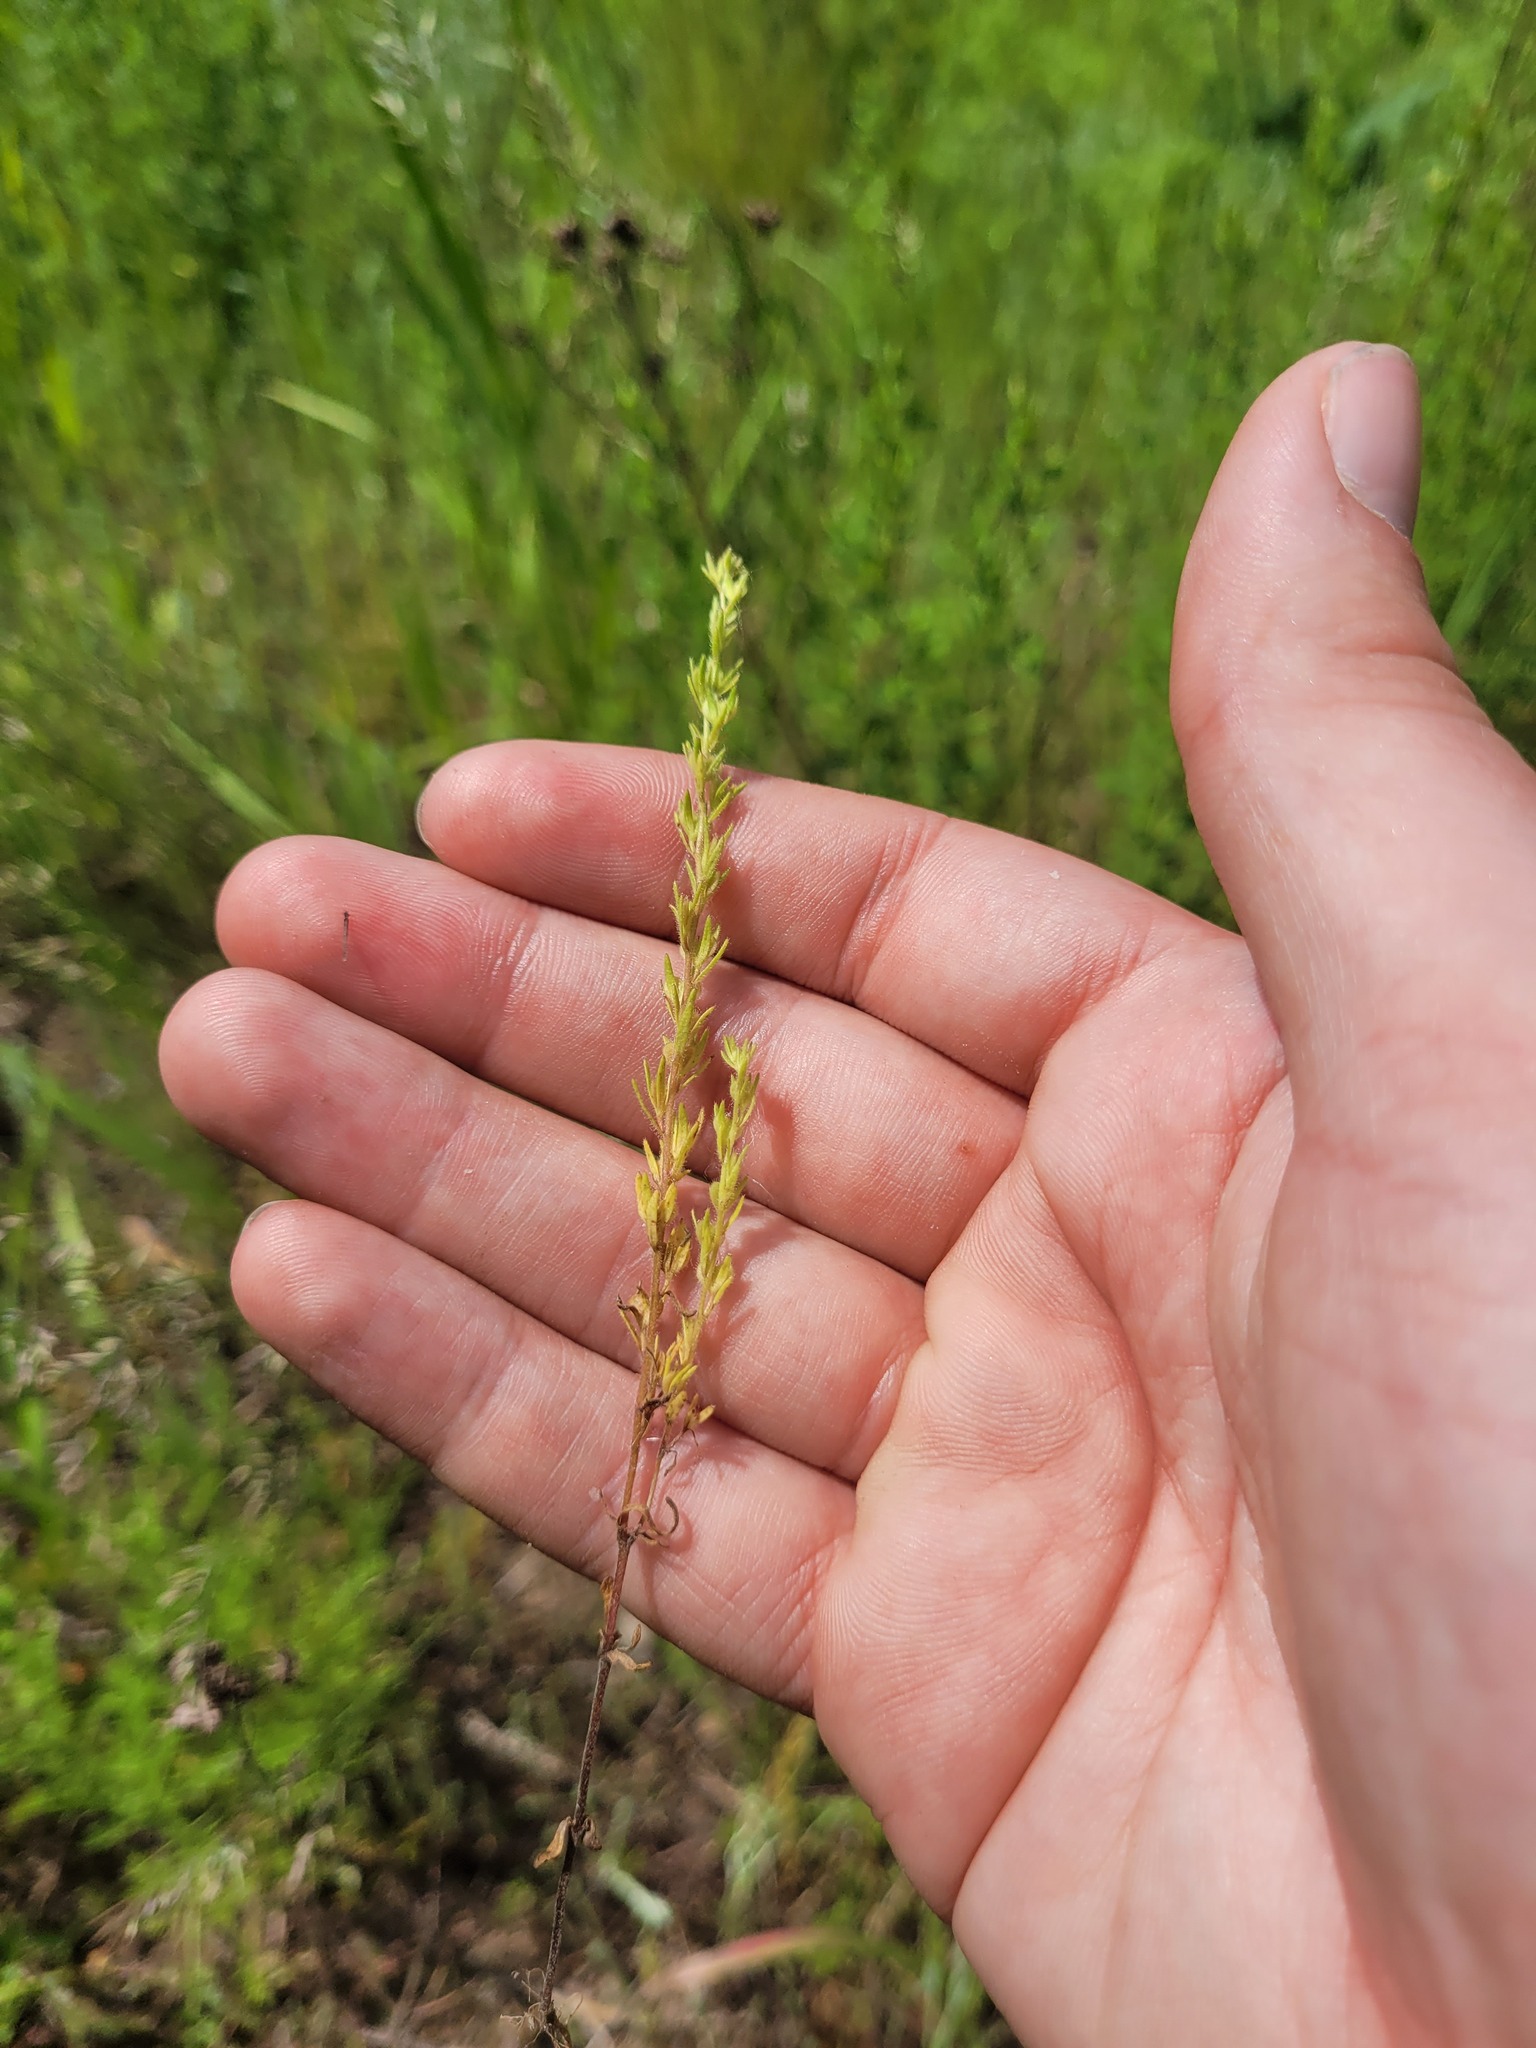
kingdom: Plantae
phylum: Tracheophyta
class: Magnoliopsida
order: Lamiales
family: Plantaginaceae
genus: Veronica
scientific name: Veronica verna
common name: Spring speedwell
